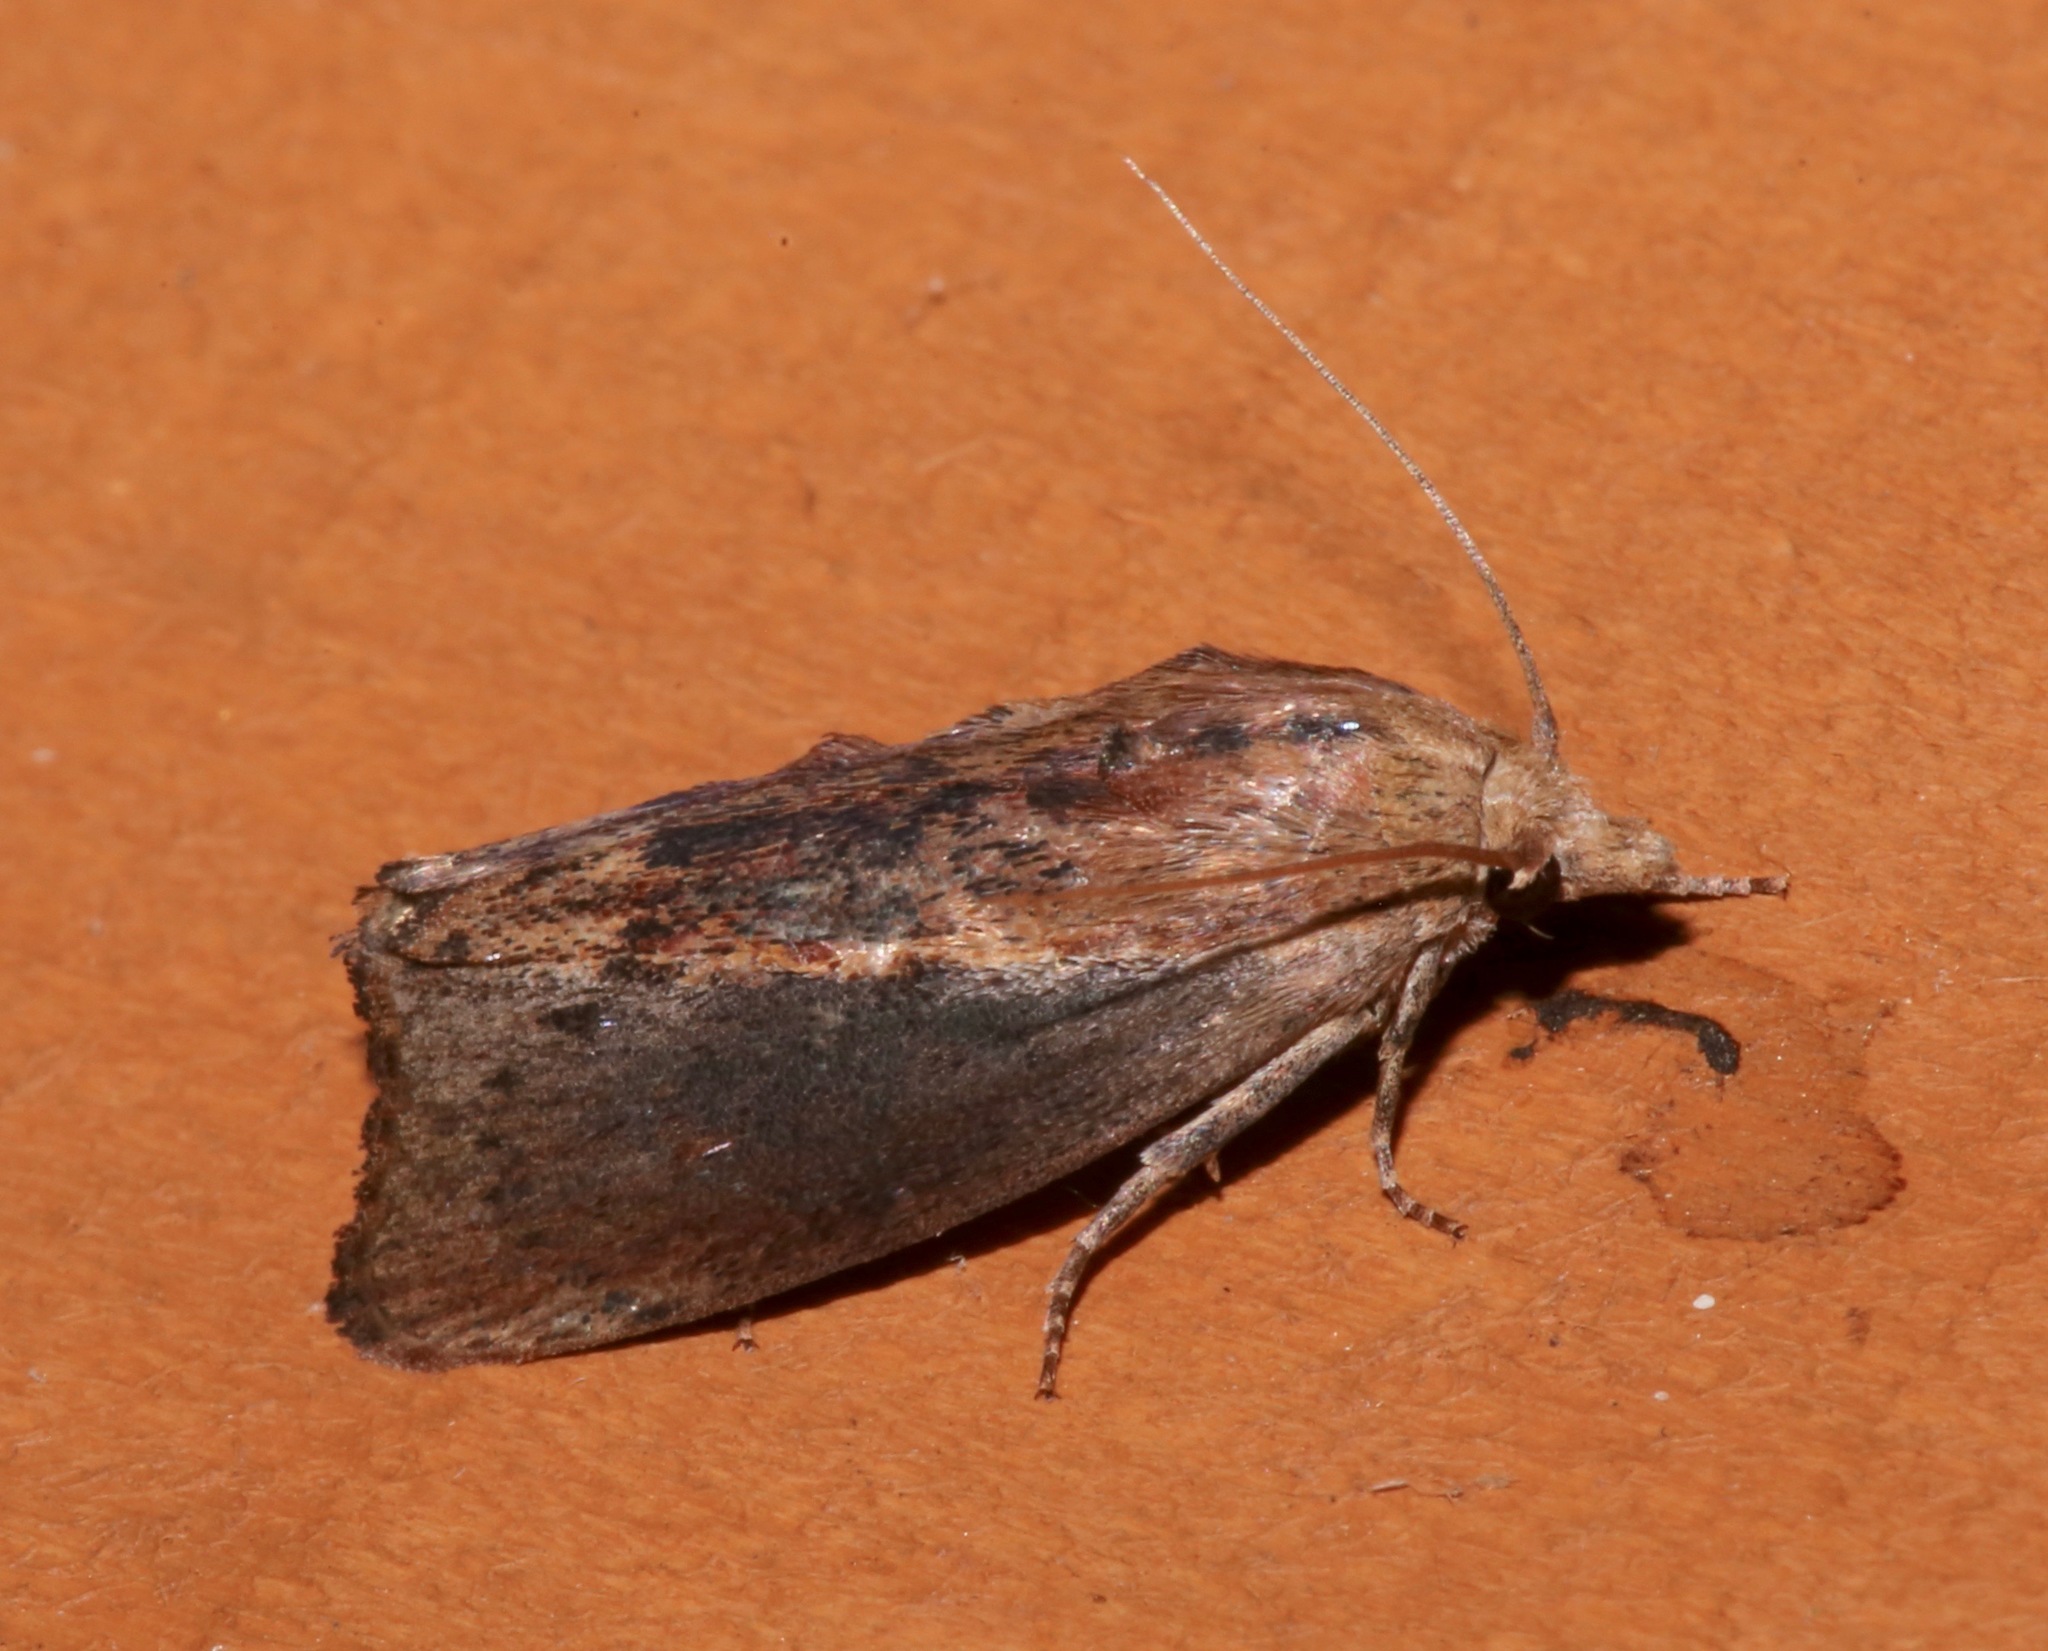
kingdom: Animalia
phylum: Arthropoda
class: Insecta
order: Lepidoptera
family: Pyralidae
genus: Galleria
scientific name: Galleria mellonella
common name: Greater wax moth
